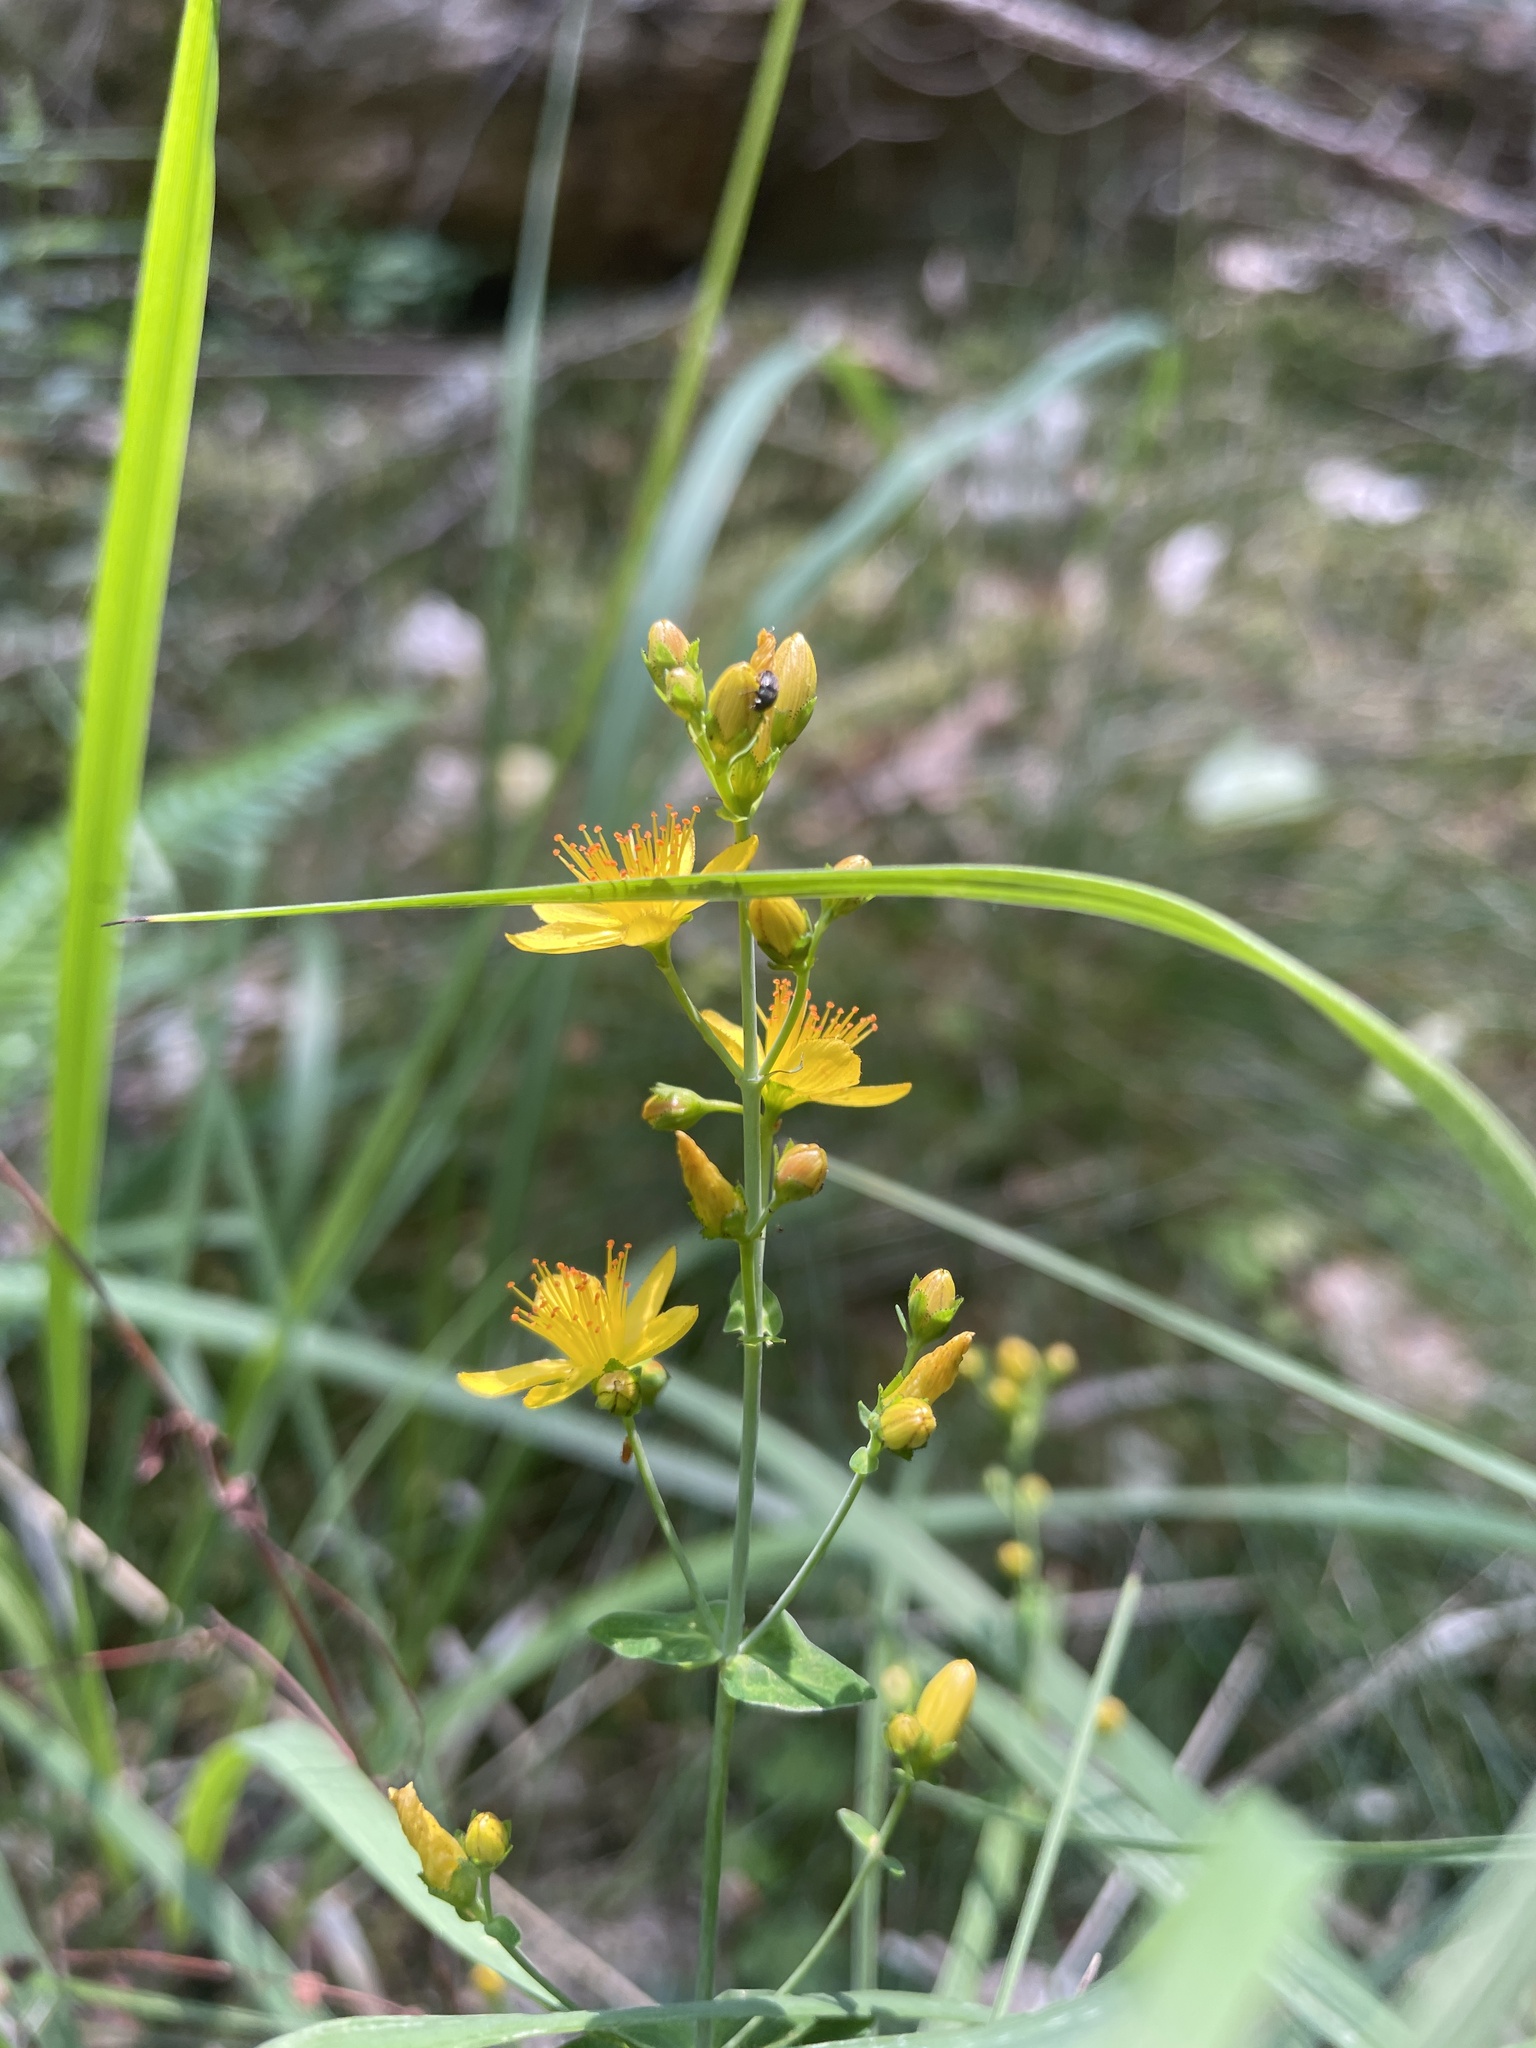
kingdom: Plantae
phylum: Tracheophyta
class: Magnoliopsida
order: Malpighiales
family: Hypericaceae
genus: Hypericum
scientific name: Hypericum pulchrum
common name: Slender st. john's-wort
